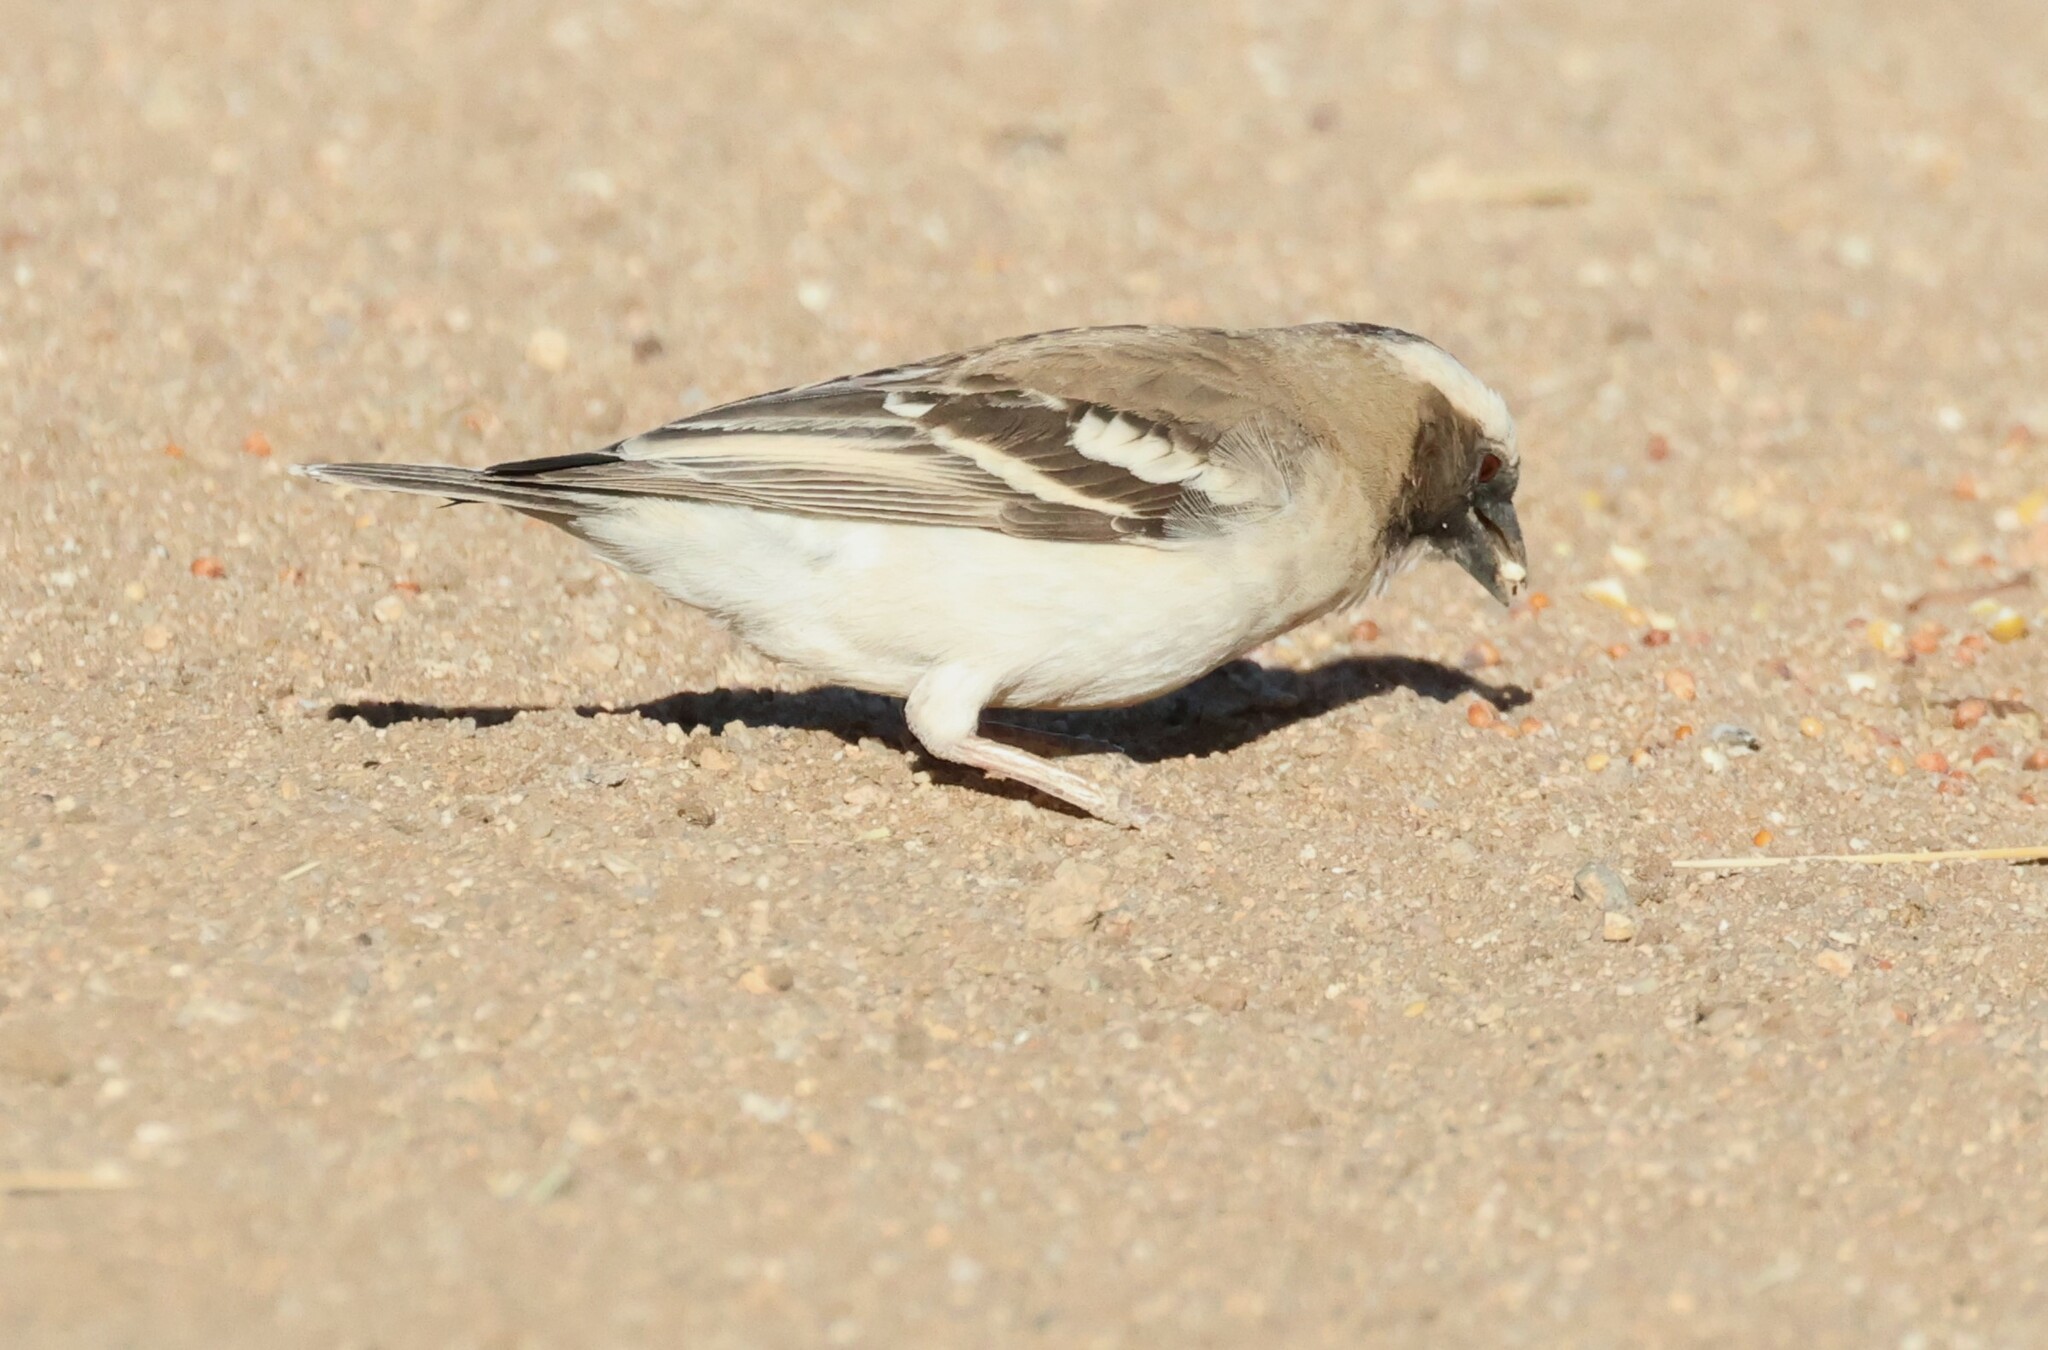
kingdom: Animalia
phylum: Chordata
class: Aves
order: Passeriformes
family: Passeridae
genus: Plocepasser
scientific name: Plocepasser mahali
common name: White-browed sparrow-weaver
